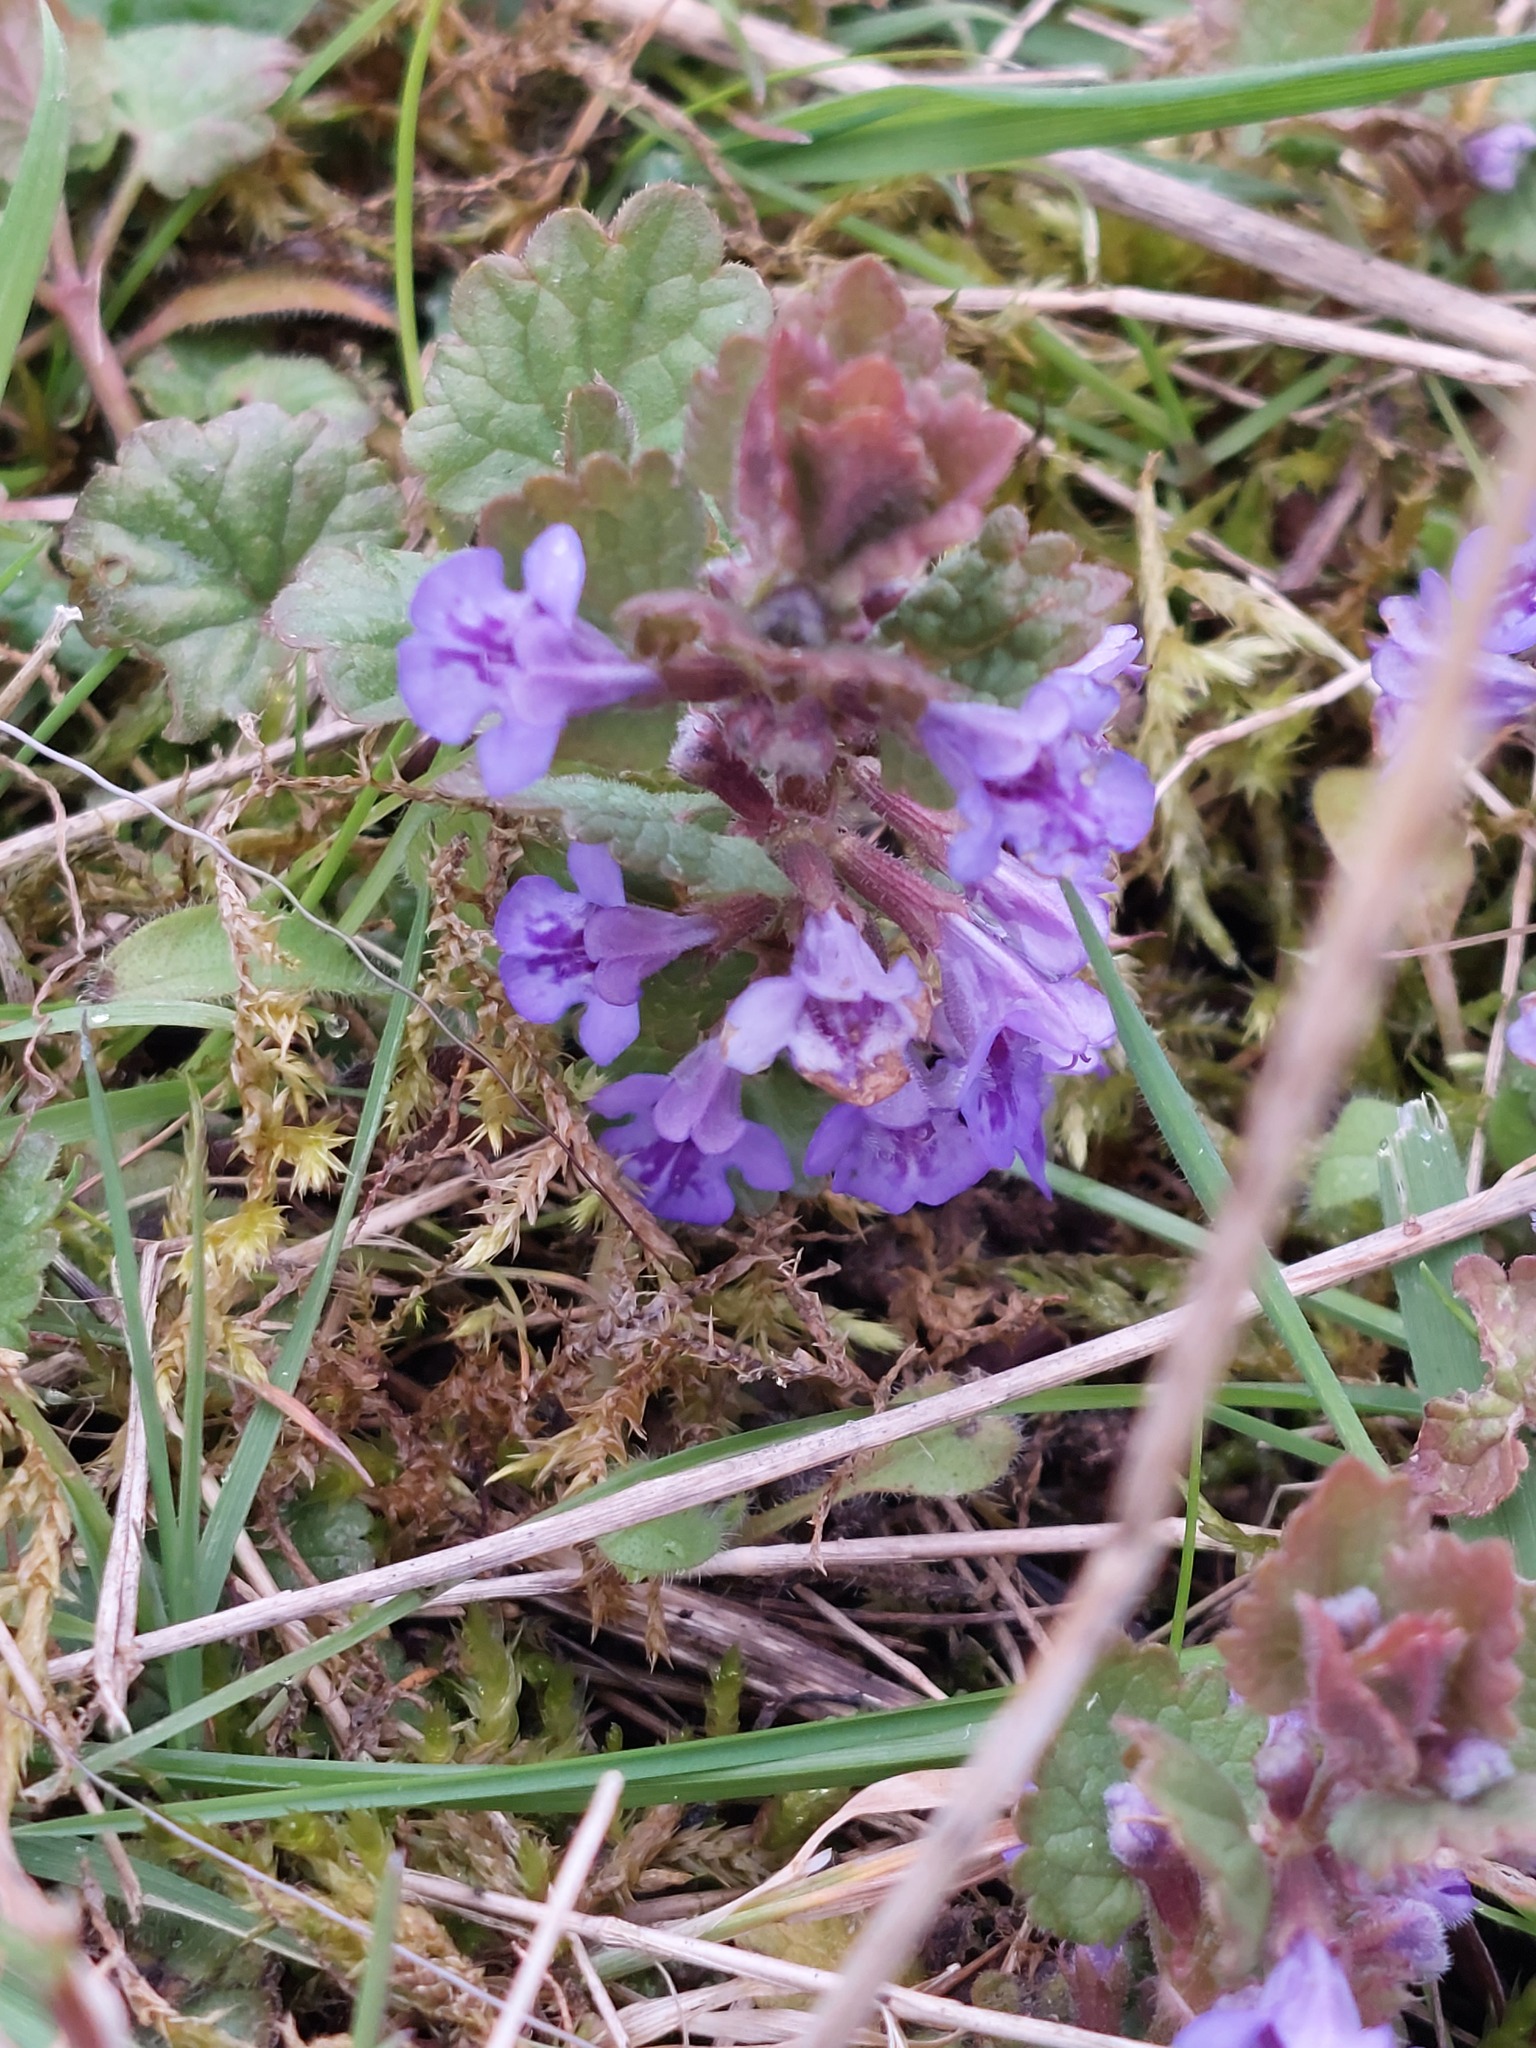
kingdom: Plantae
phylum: Tracheophyta
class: Magnoliopsida
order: Lamiales
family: Lamiaceae
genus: Glechoma
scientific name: Glechoma hederacea
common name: Ground ivy
